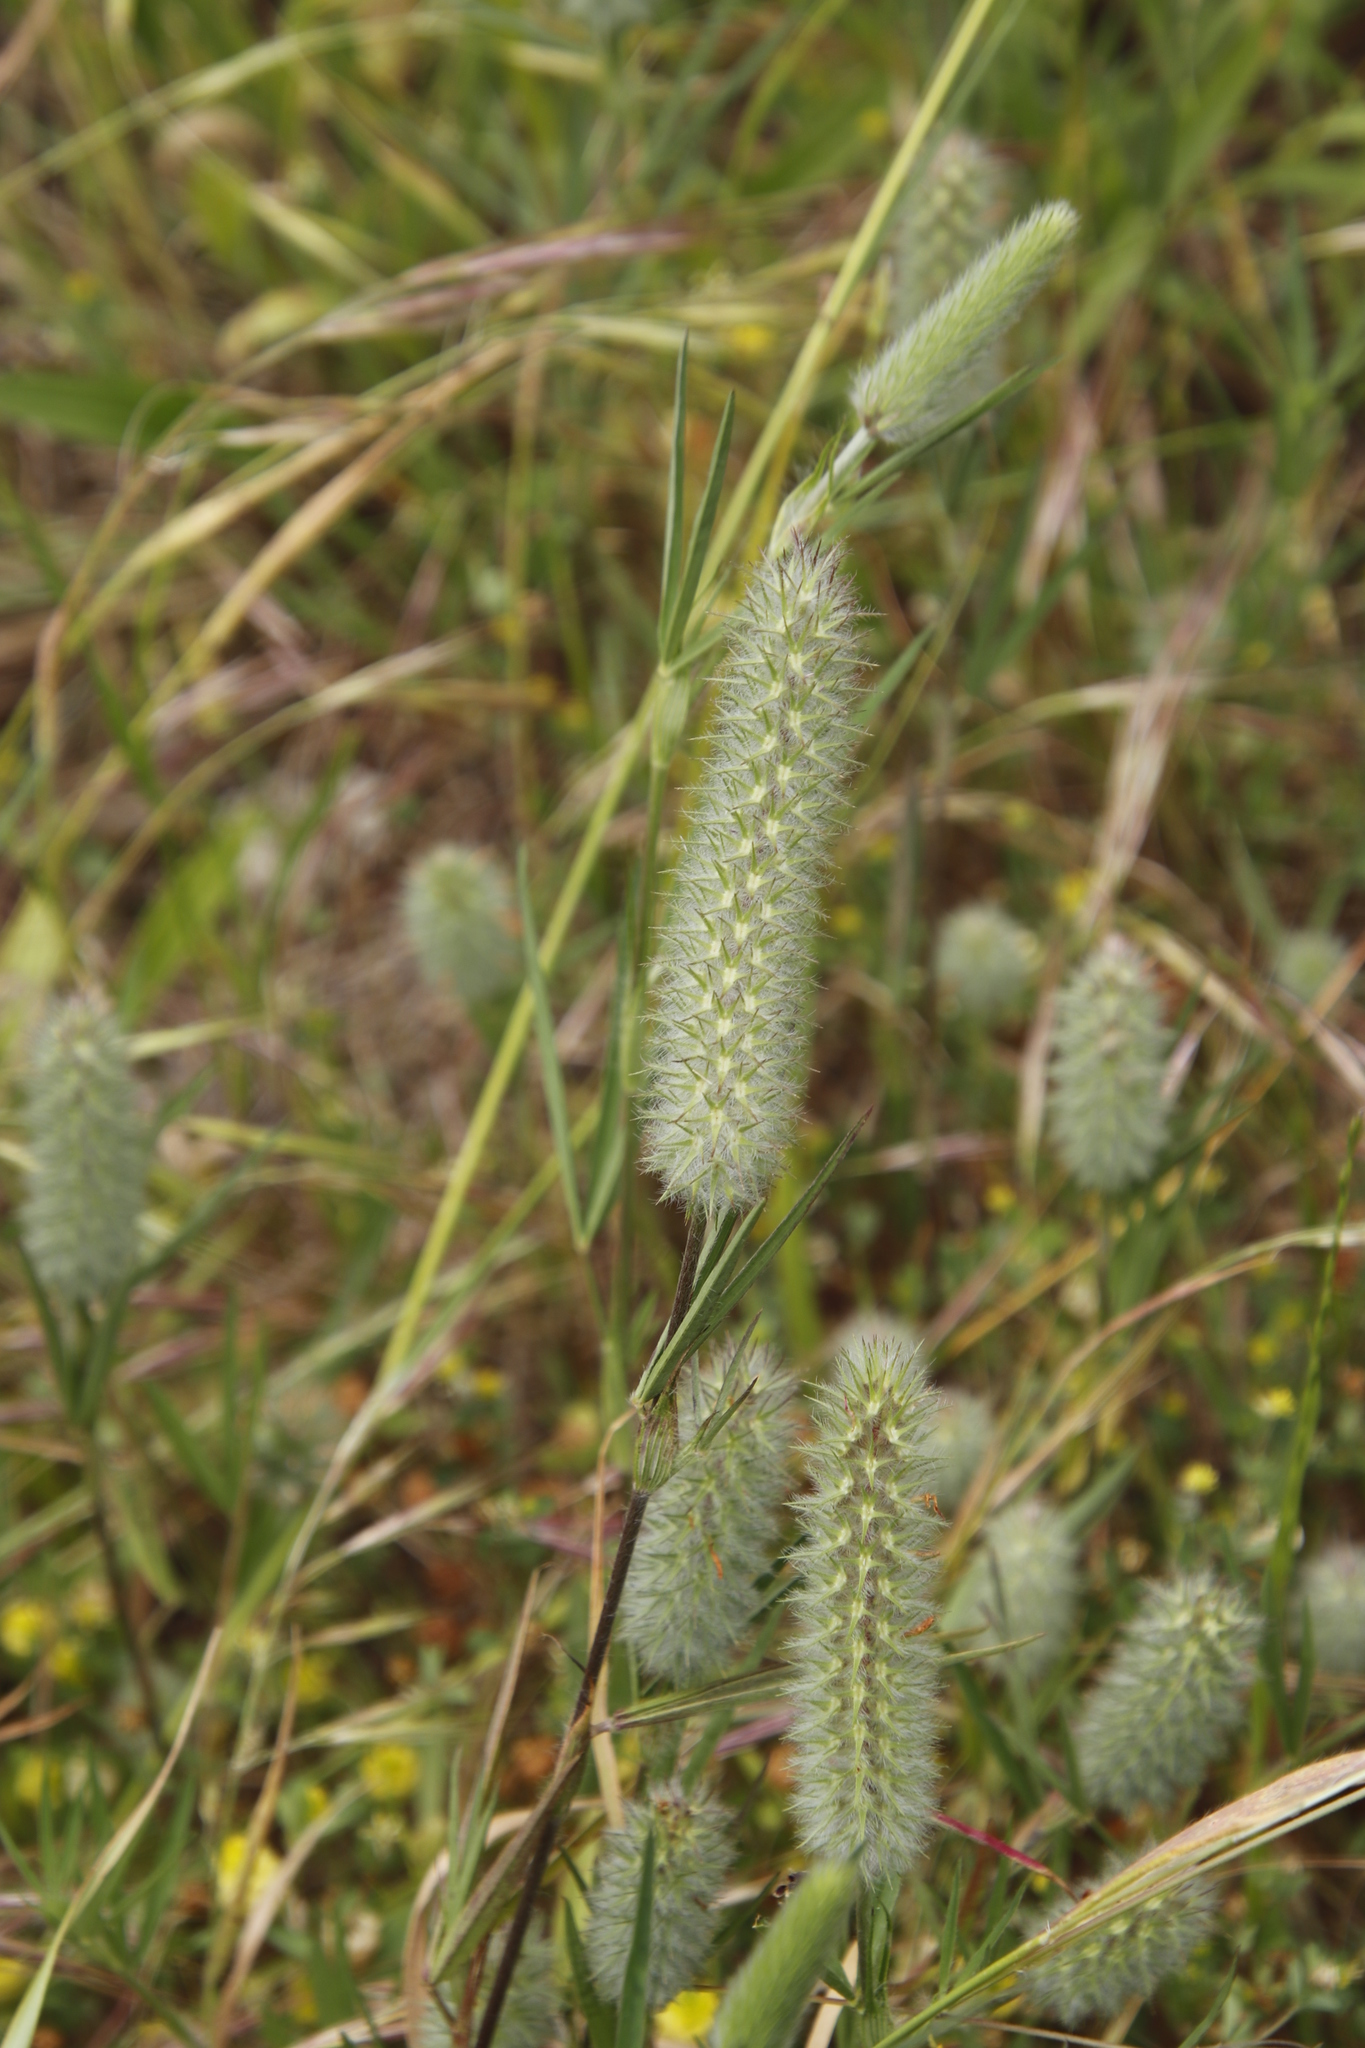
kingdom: Plantae
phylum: Tracheophyta
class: Magnoliopsida
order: Fabales
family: Fabaceae
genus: Trifolium
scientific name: Trifolium angustifolium
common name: Narrow clover
